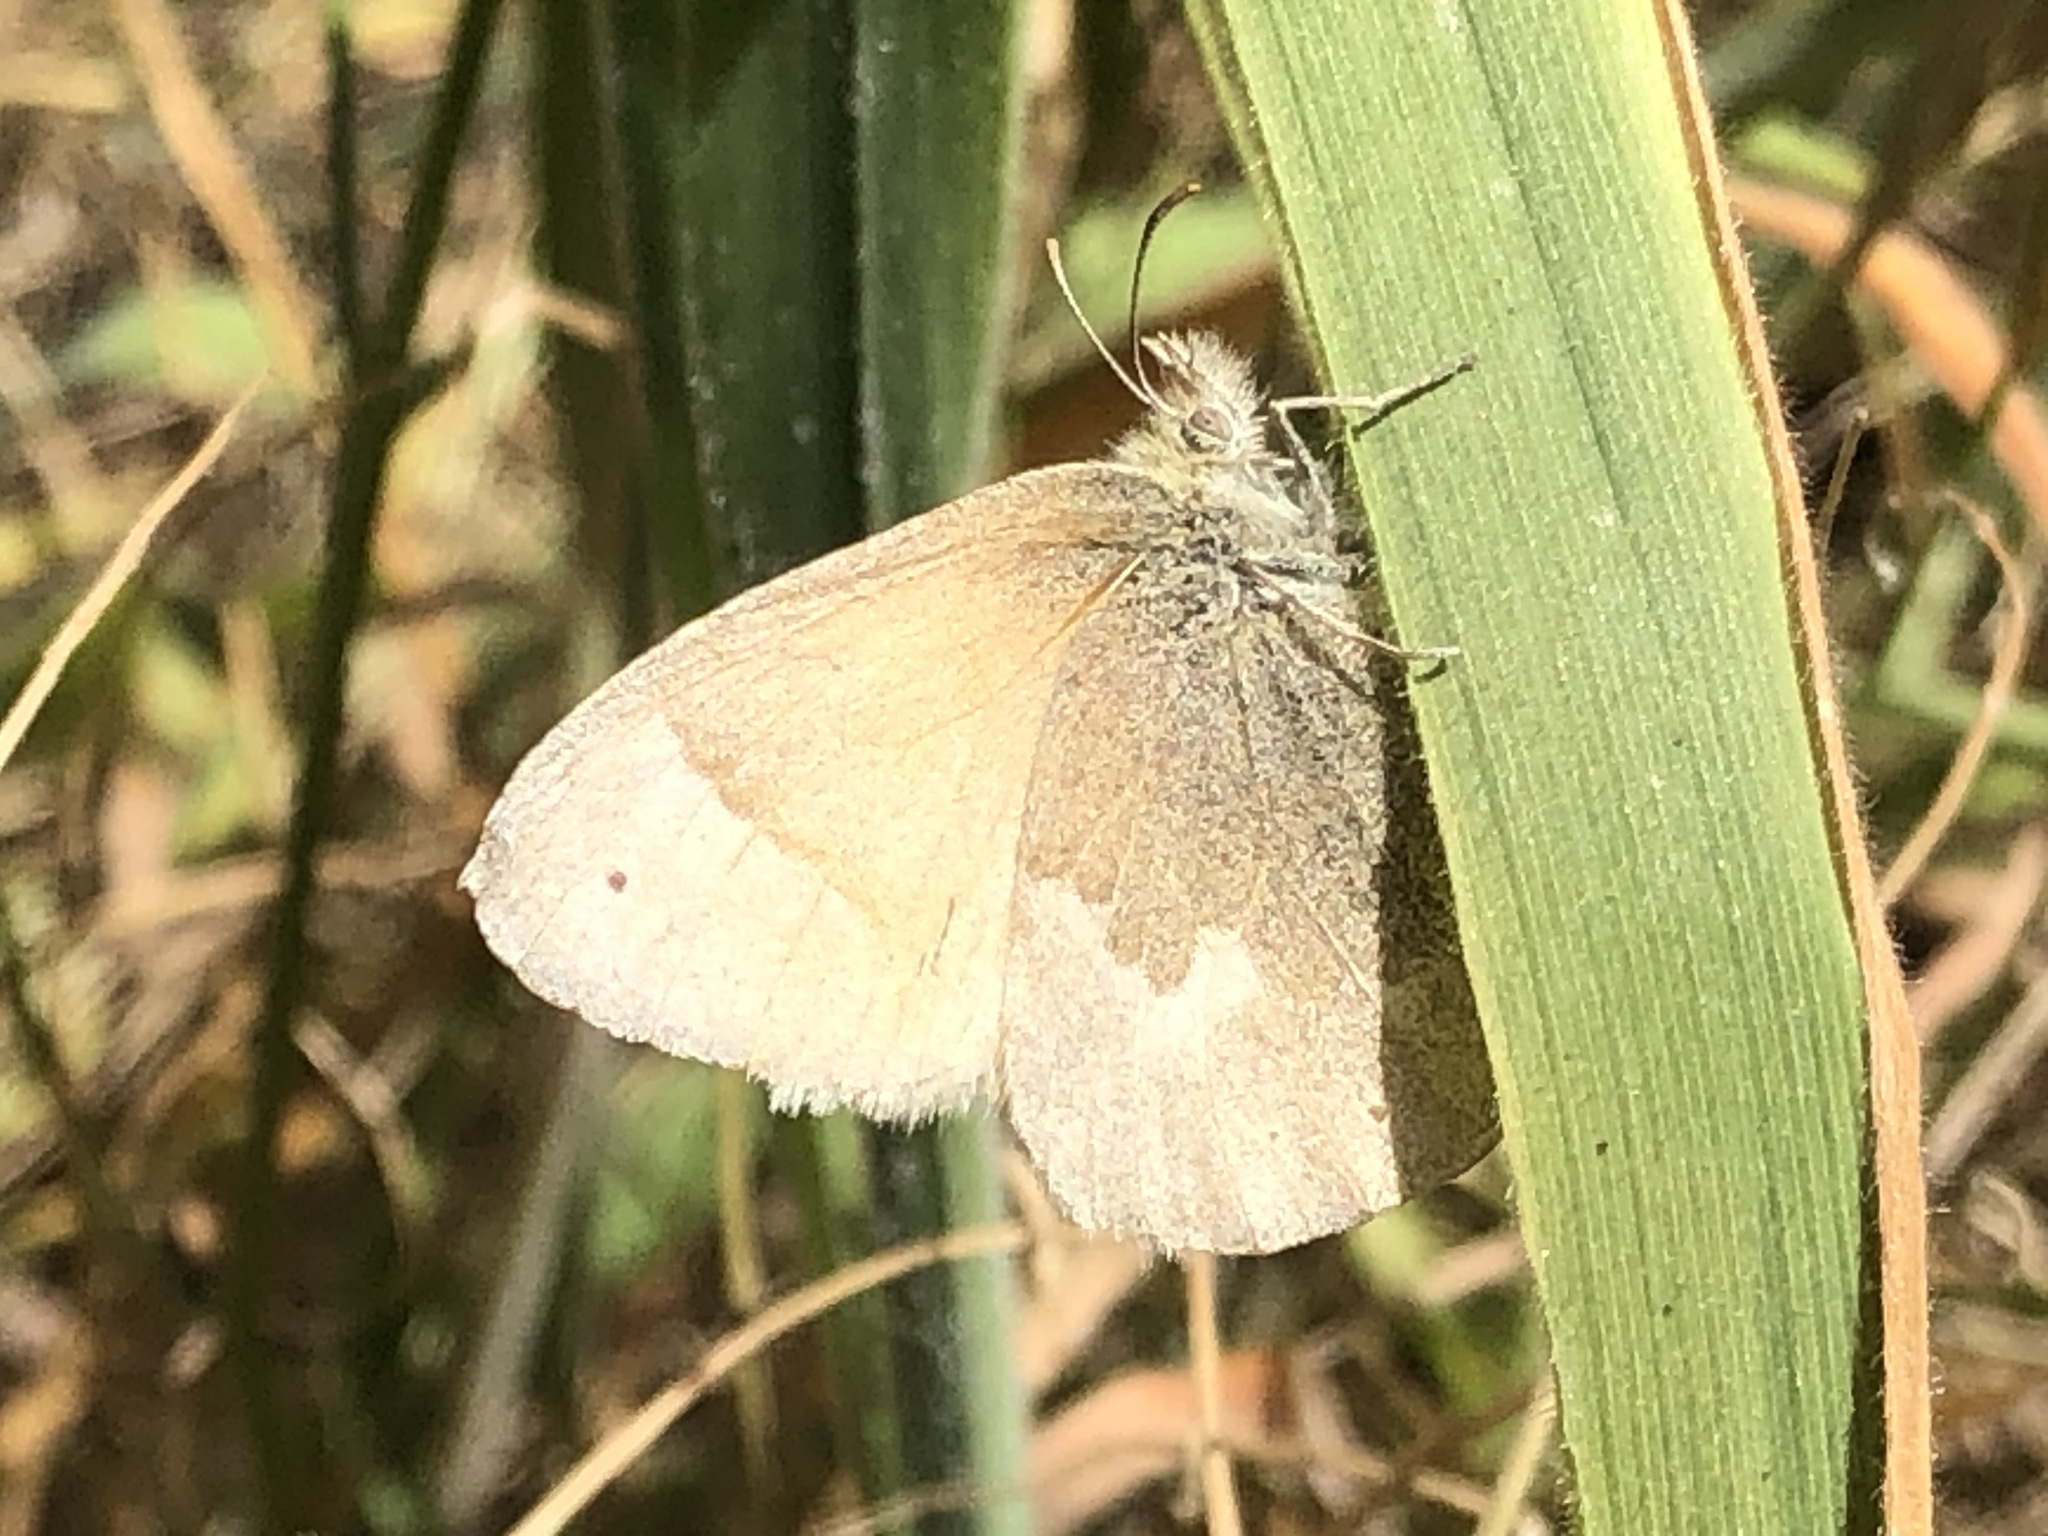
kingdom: Animalia
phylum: Arthropoda
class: Insecta
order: Lepidoptera
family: Nymphalidae
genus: Coenonympha
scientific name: Coenonympha california
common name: Common ringlet
